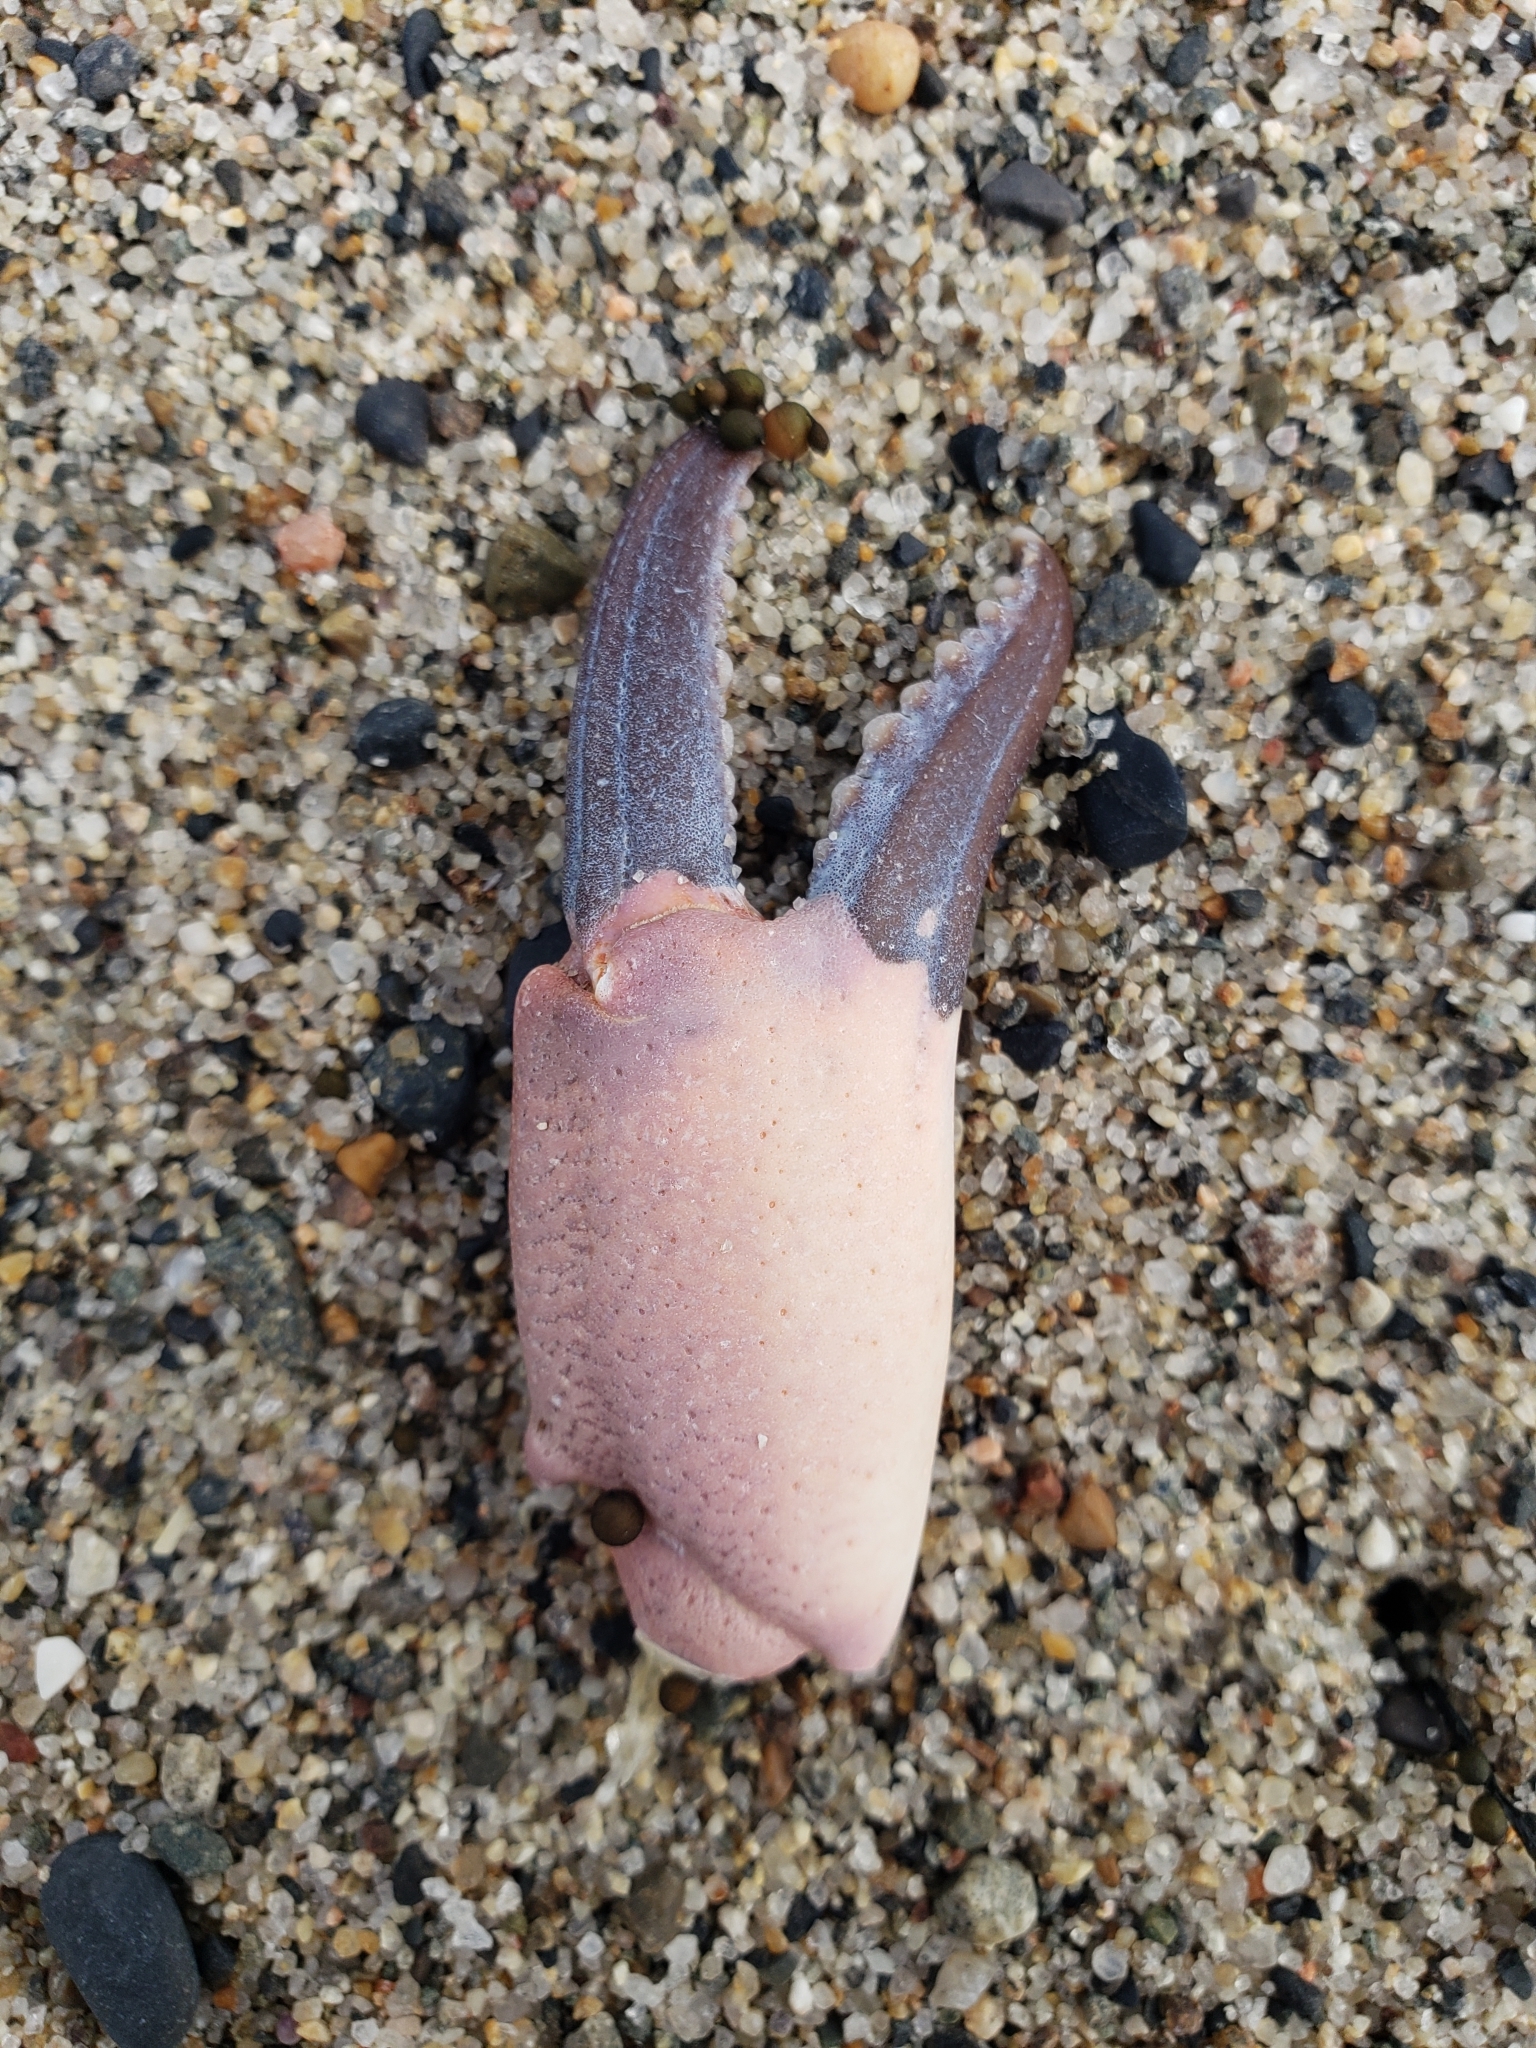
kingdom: Animalia
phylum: Arthropoda
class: Malacostraca
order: Decapoda
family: Xanthidae
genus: Cycloxanthops
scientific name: Cycloxanthops novemdentatus
